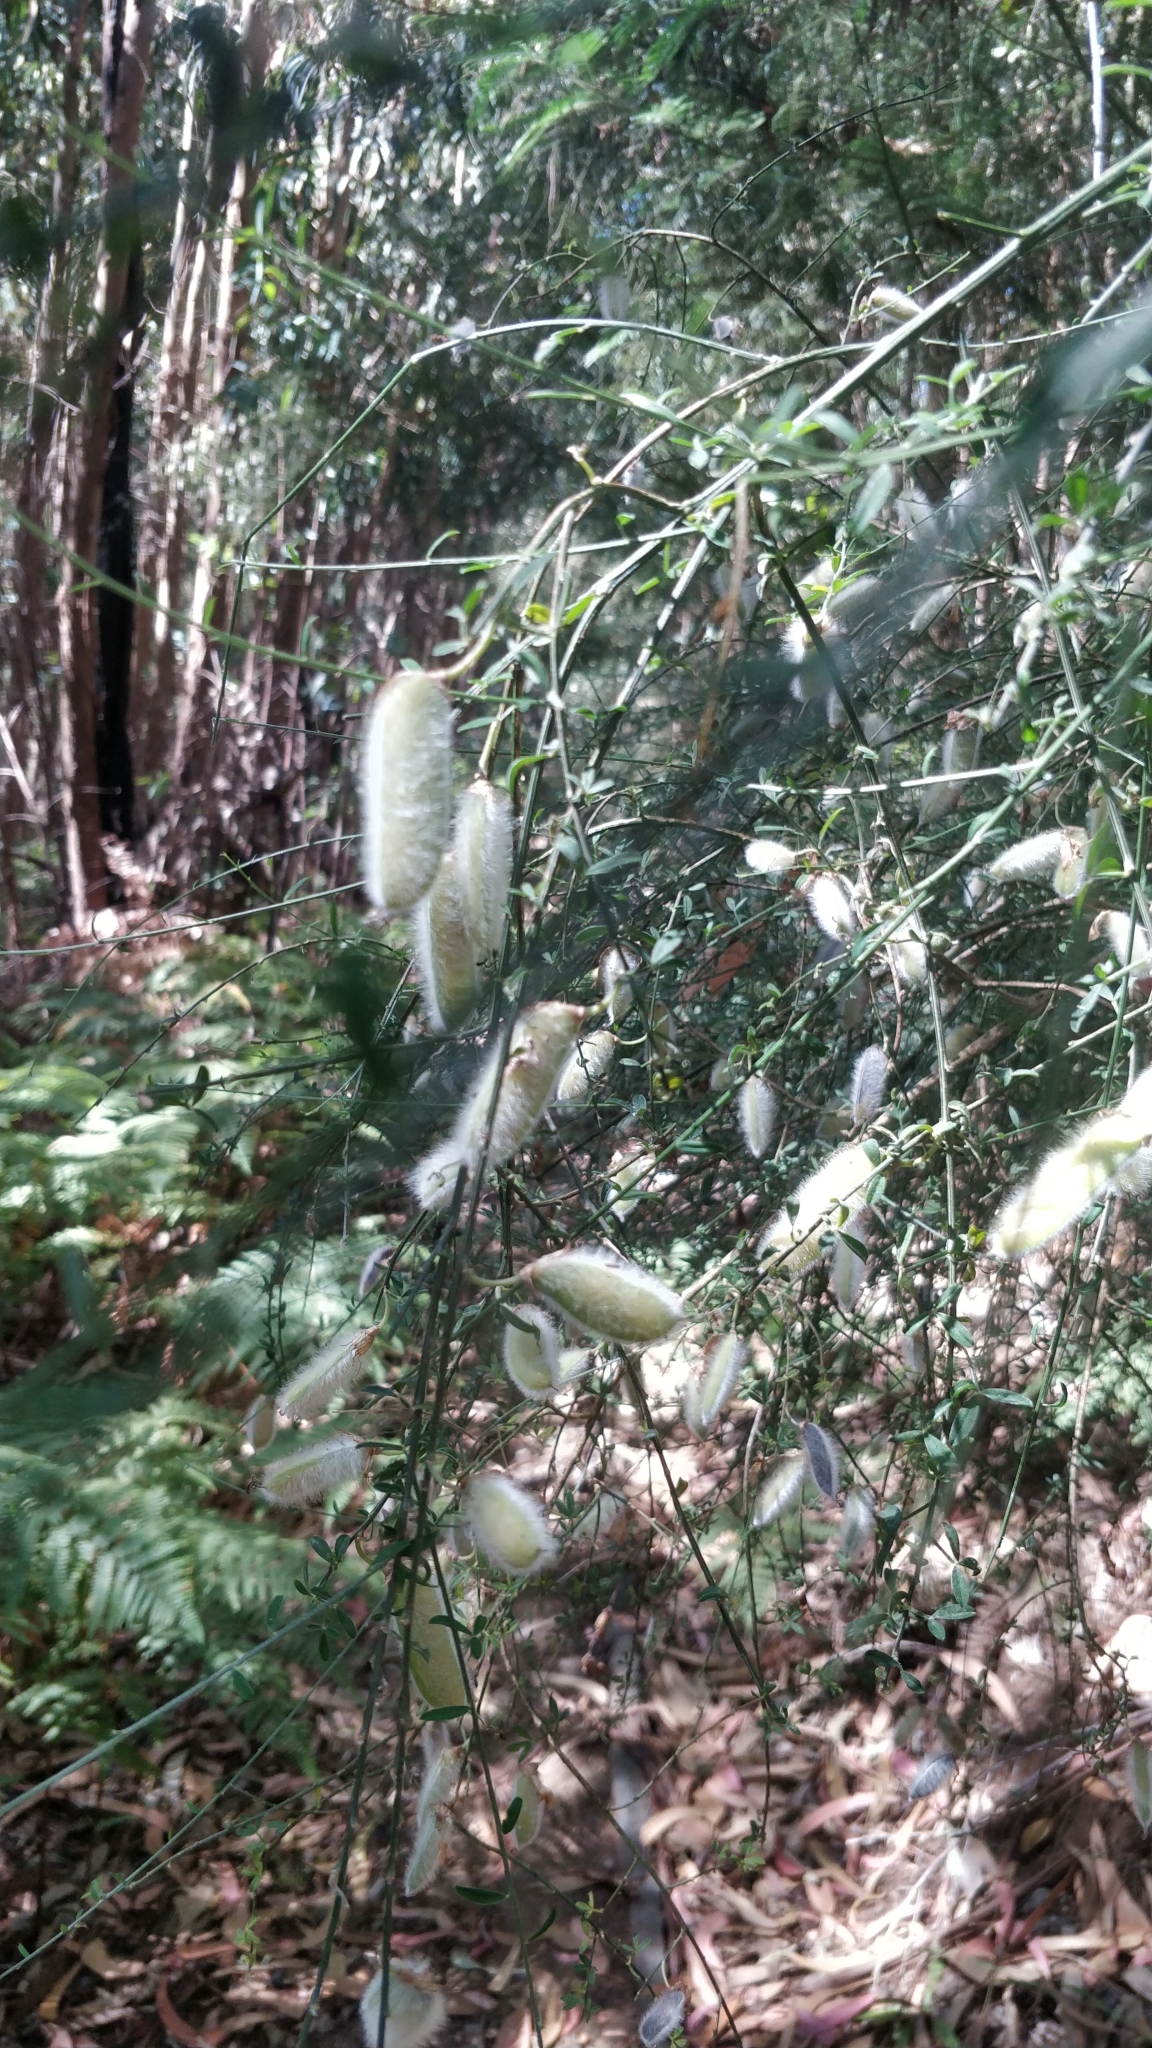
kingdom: Plantae
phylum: Tracheophyta
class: Magnoliopsida
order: Fabales
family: Fabaceae
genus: Cytisus
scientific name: Cytisus striatus
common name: Hairy-fruited broom
